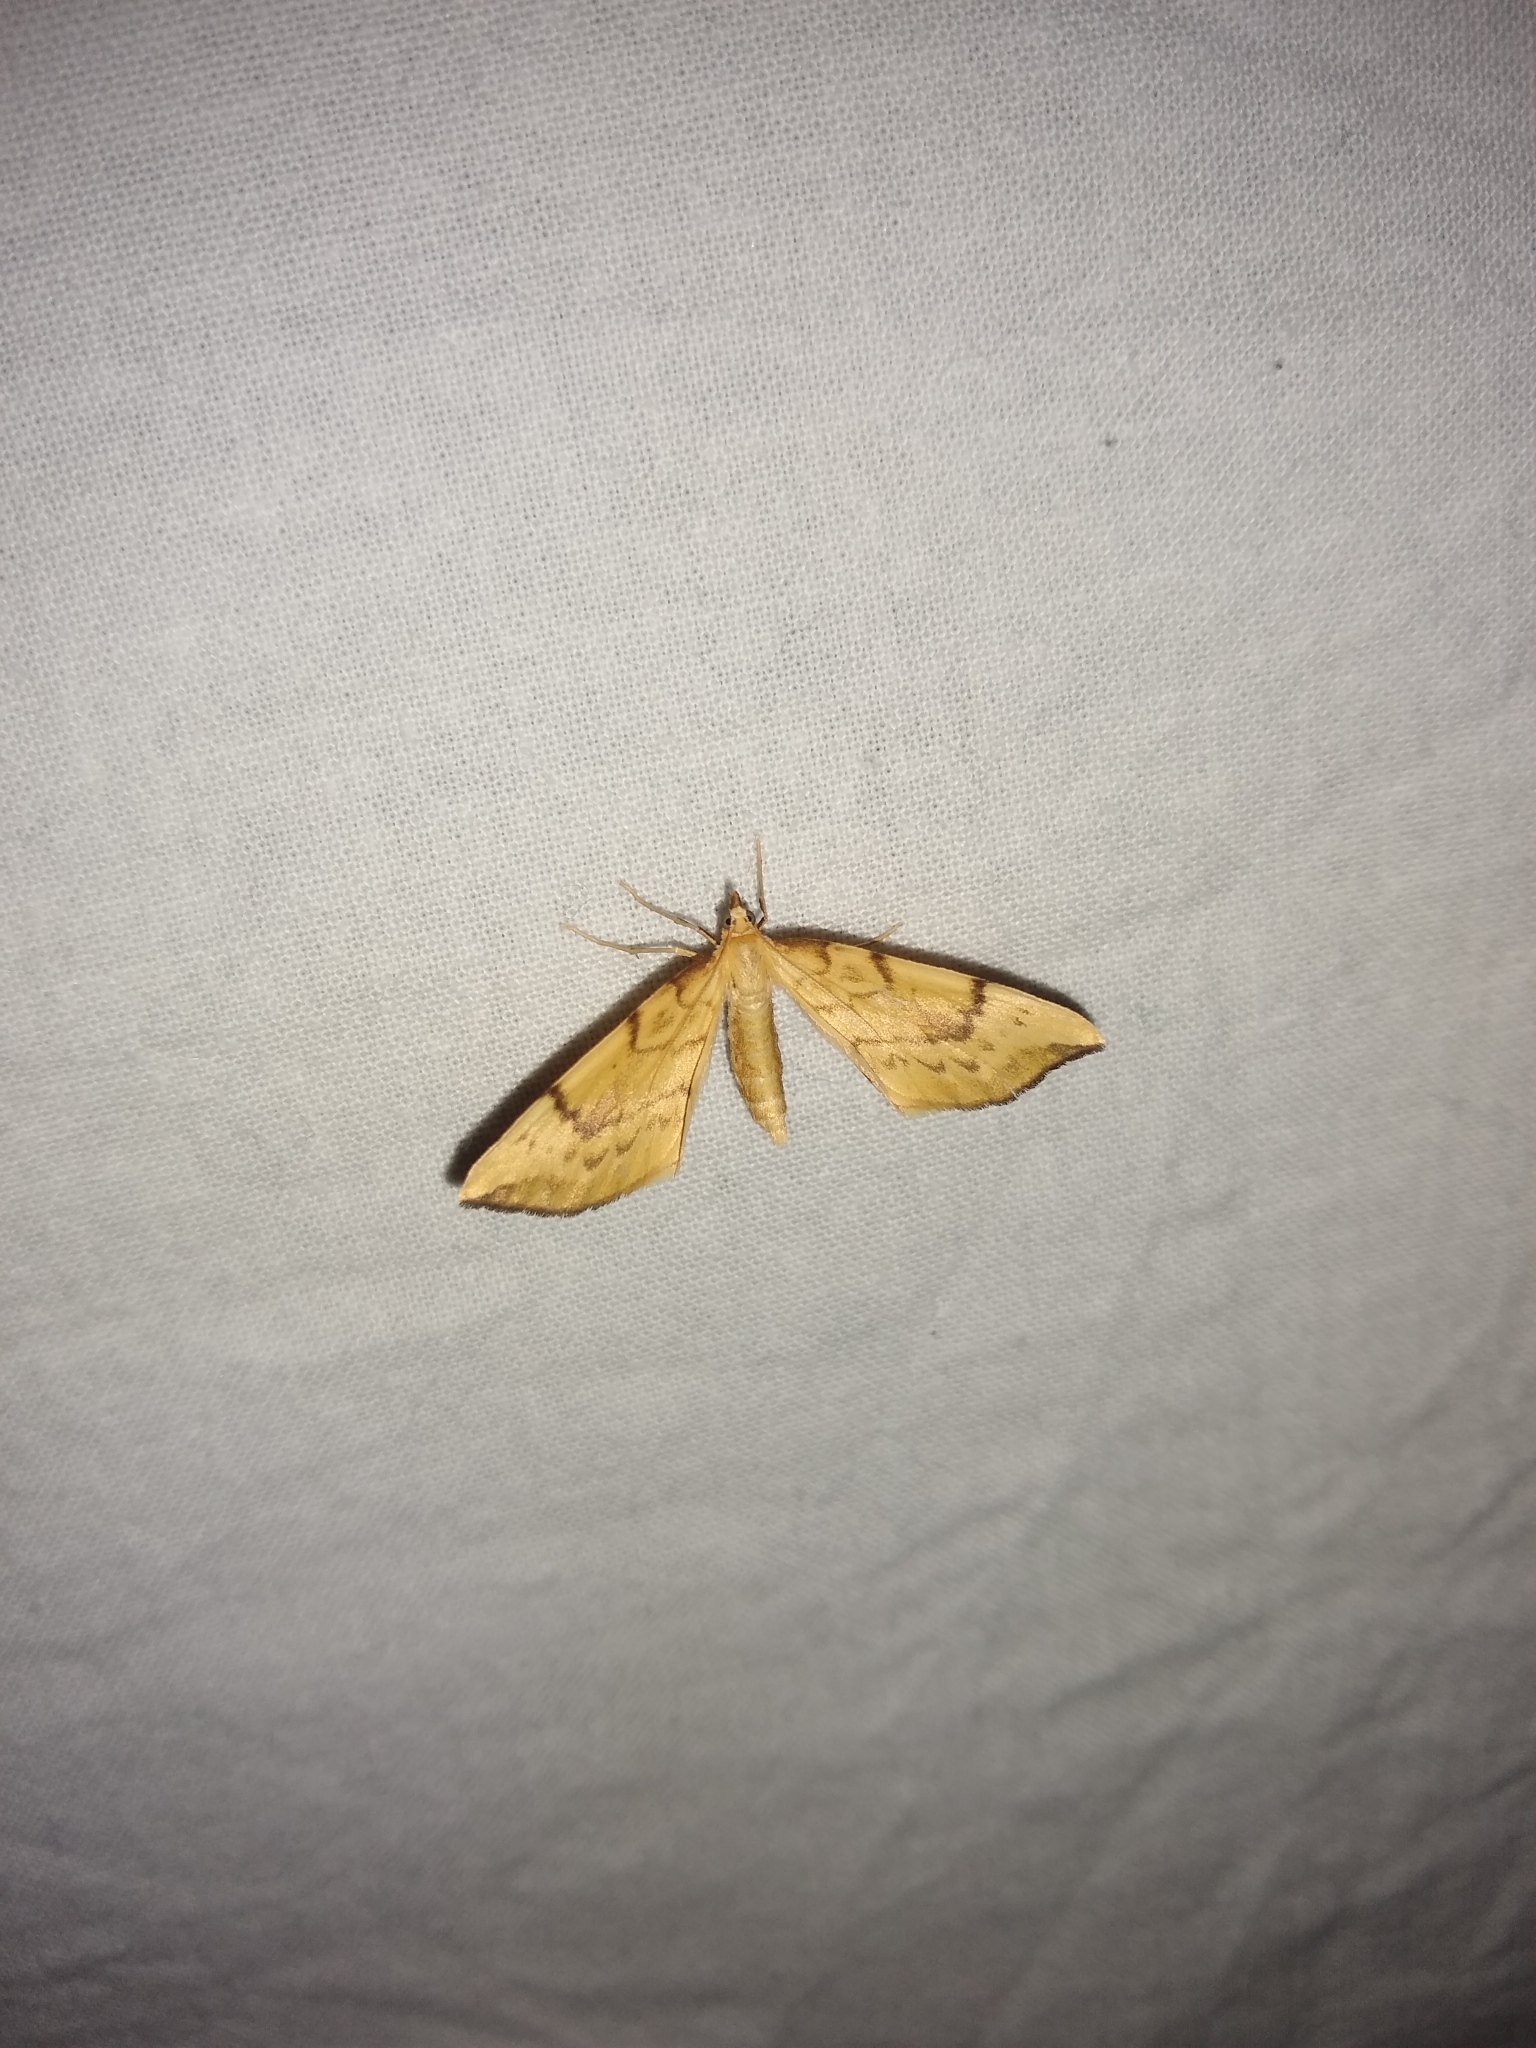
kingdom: Animalia
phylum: Arthropoda
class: Insecta
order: Lepidoptera
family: Geometridae
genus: Eulithis
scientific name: Eulithis pyraliata
